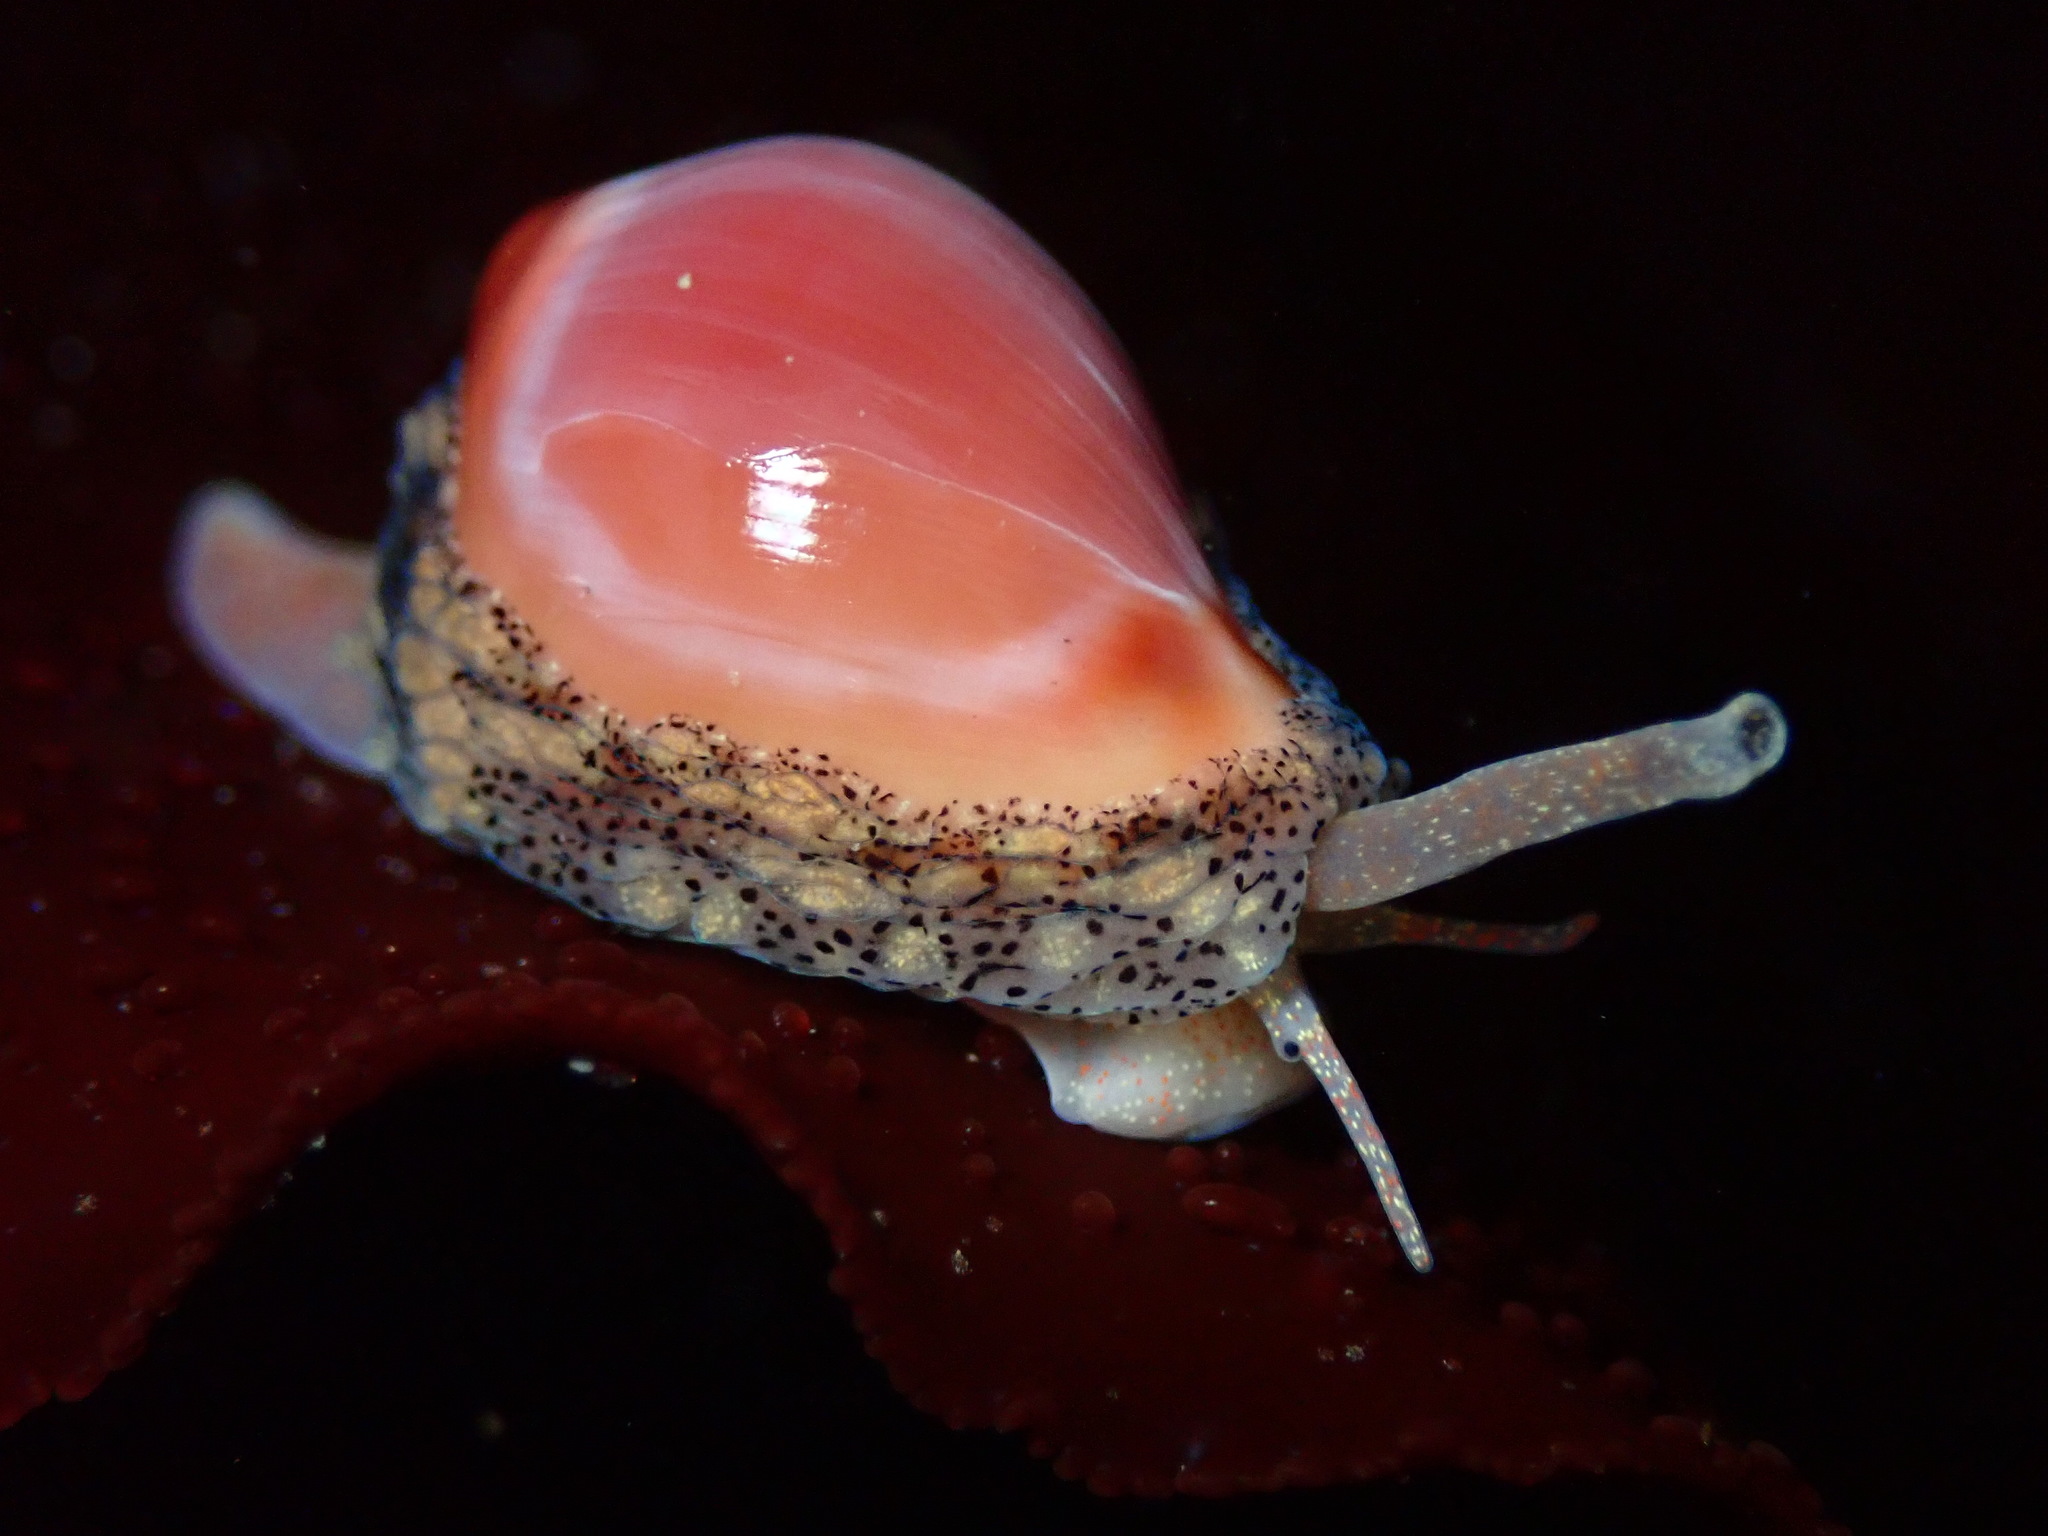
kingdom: Animalia
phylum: Mollusca
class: Gastropoda
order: Littorinimorpha
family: Eratoidae
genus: Hespererato
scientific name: Hespererato vitellina
